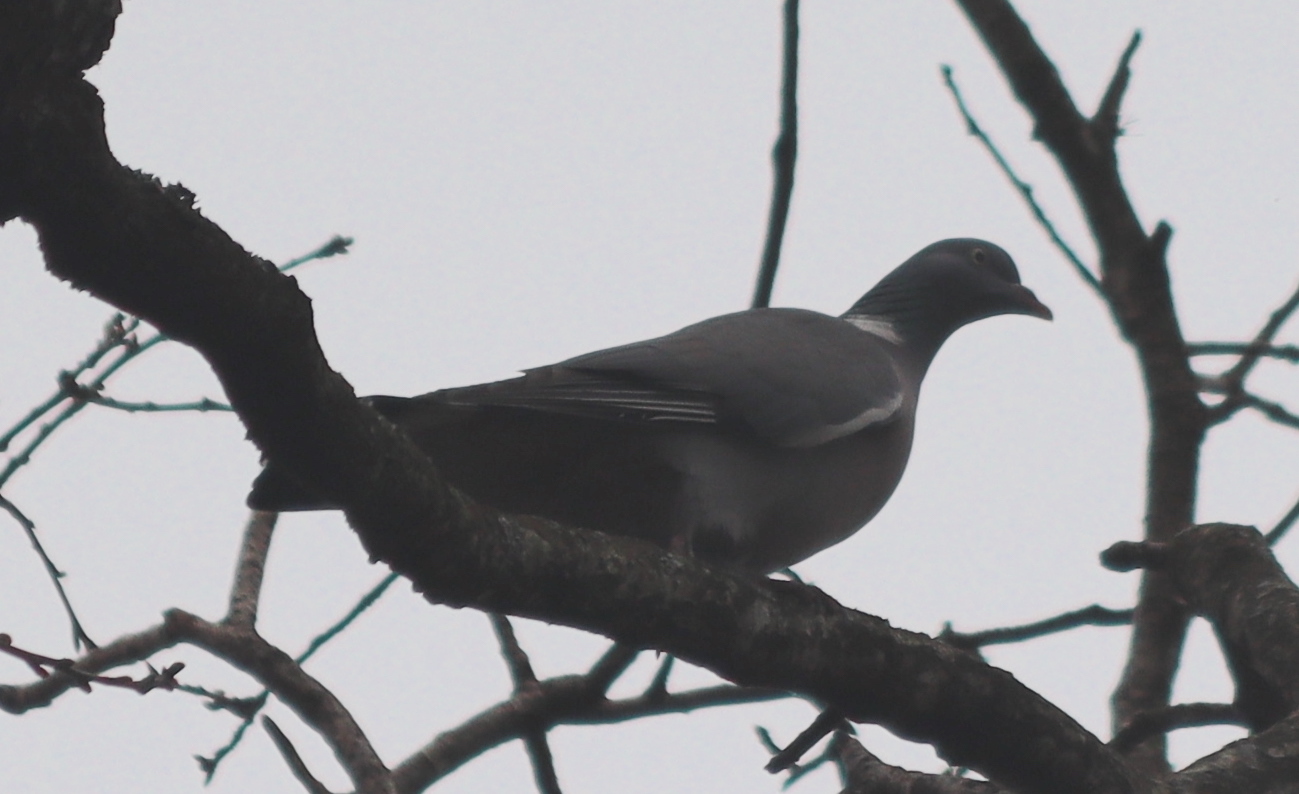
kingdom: Animalia
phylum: Chordata
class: Aves
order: Columbiformes
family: Columbidae
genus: Columba
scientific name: Columba palumbus
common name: Common wood pigeon
